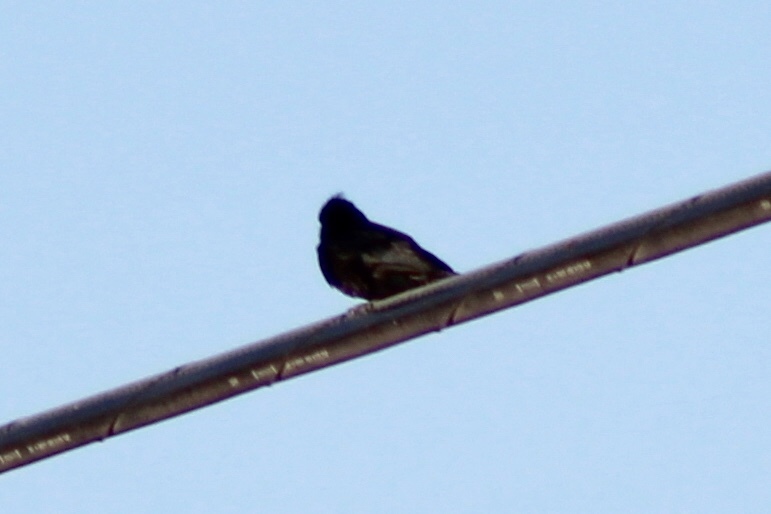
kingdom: Animalia
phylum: Chordata
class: Aves
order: Passeriformes
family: Ptilogonatidae
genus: Phainopepla
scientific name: Phainopepla nitens
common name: Phainopepla
